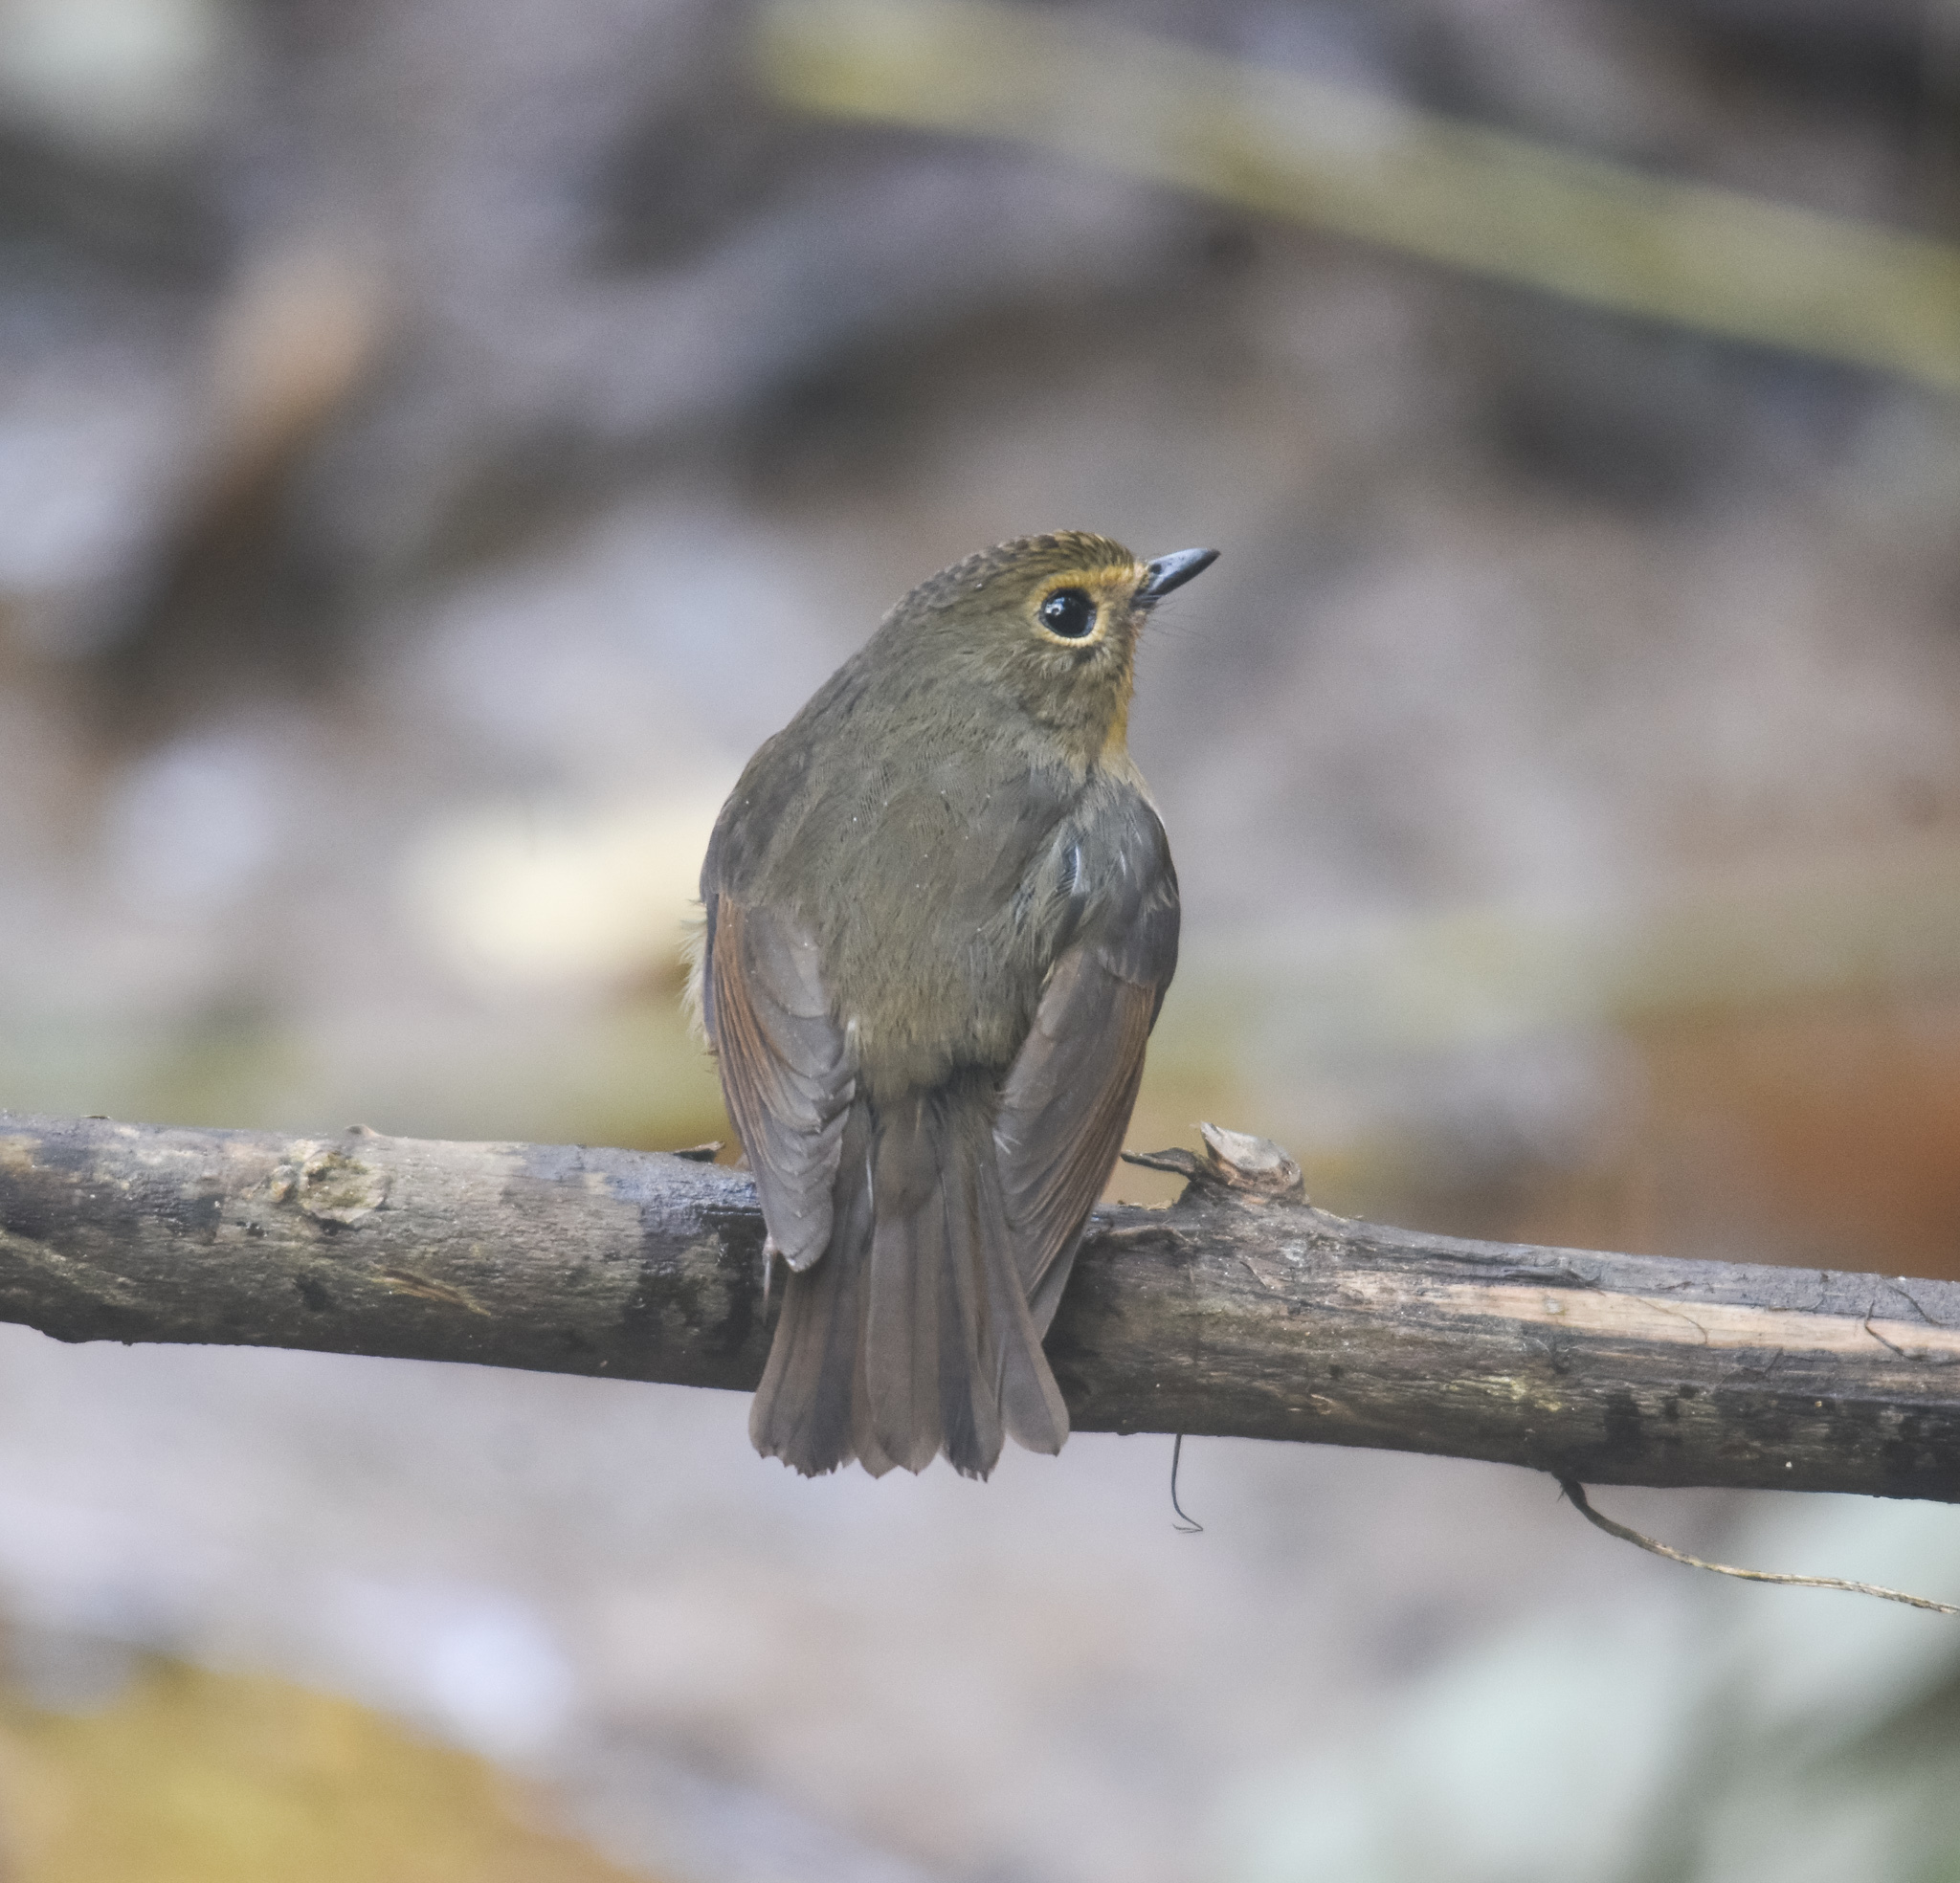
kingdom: Animalia
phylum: Chordata
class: Aves
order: Passeriformes
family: Muscicapidae
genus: Ficedula
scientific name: Ficedula hyperythra
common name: Snowy-browed flycatcher
